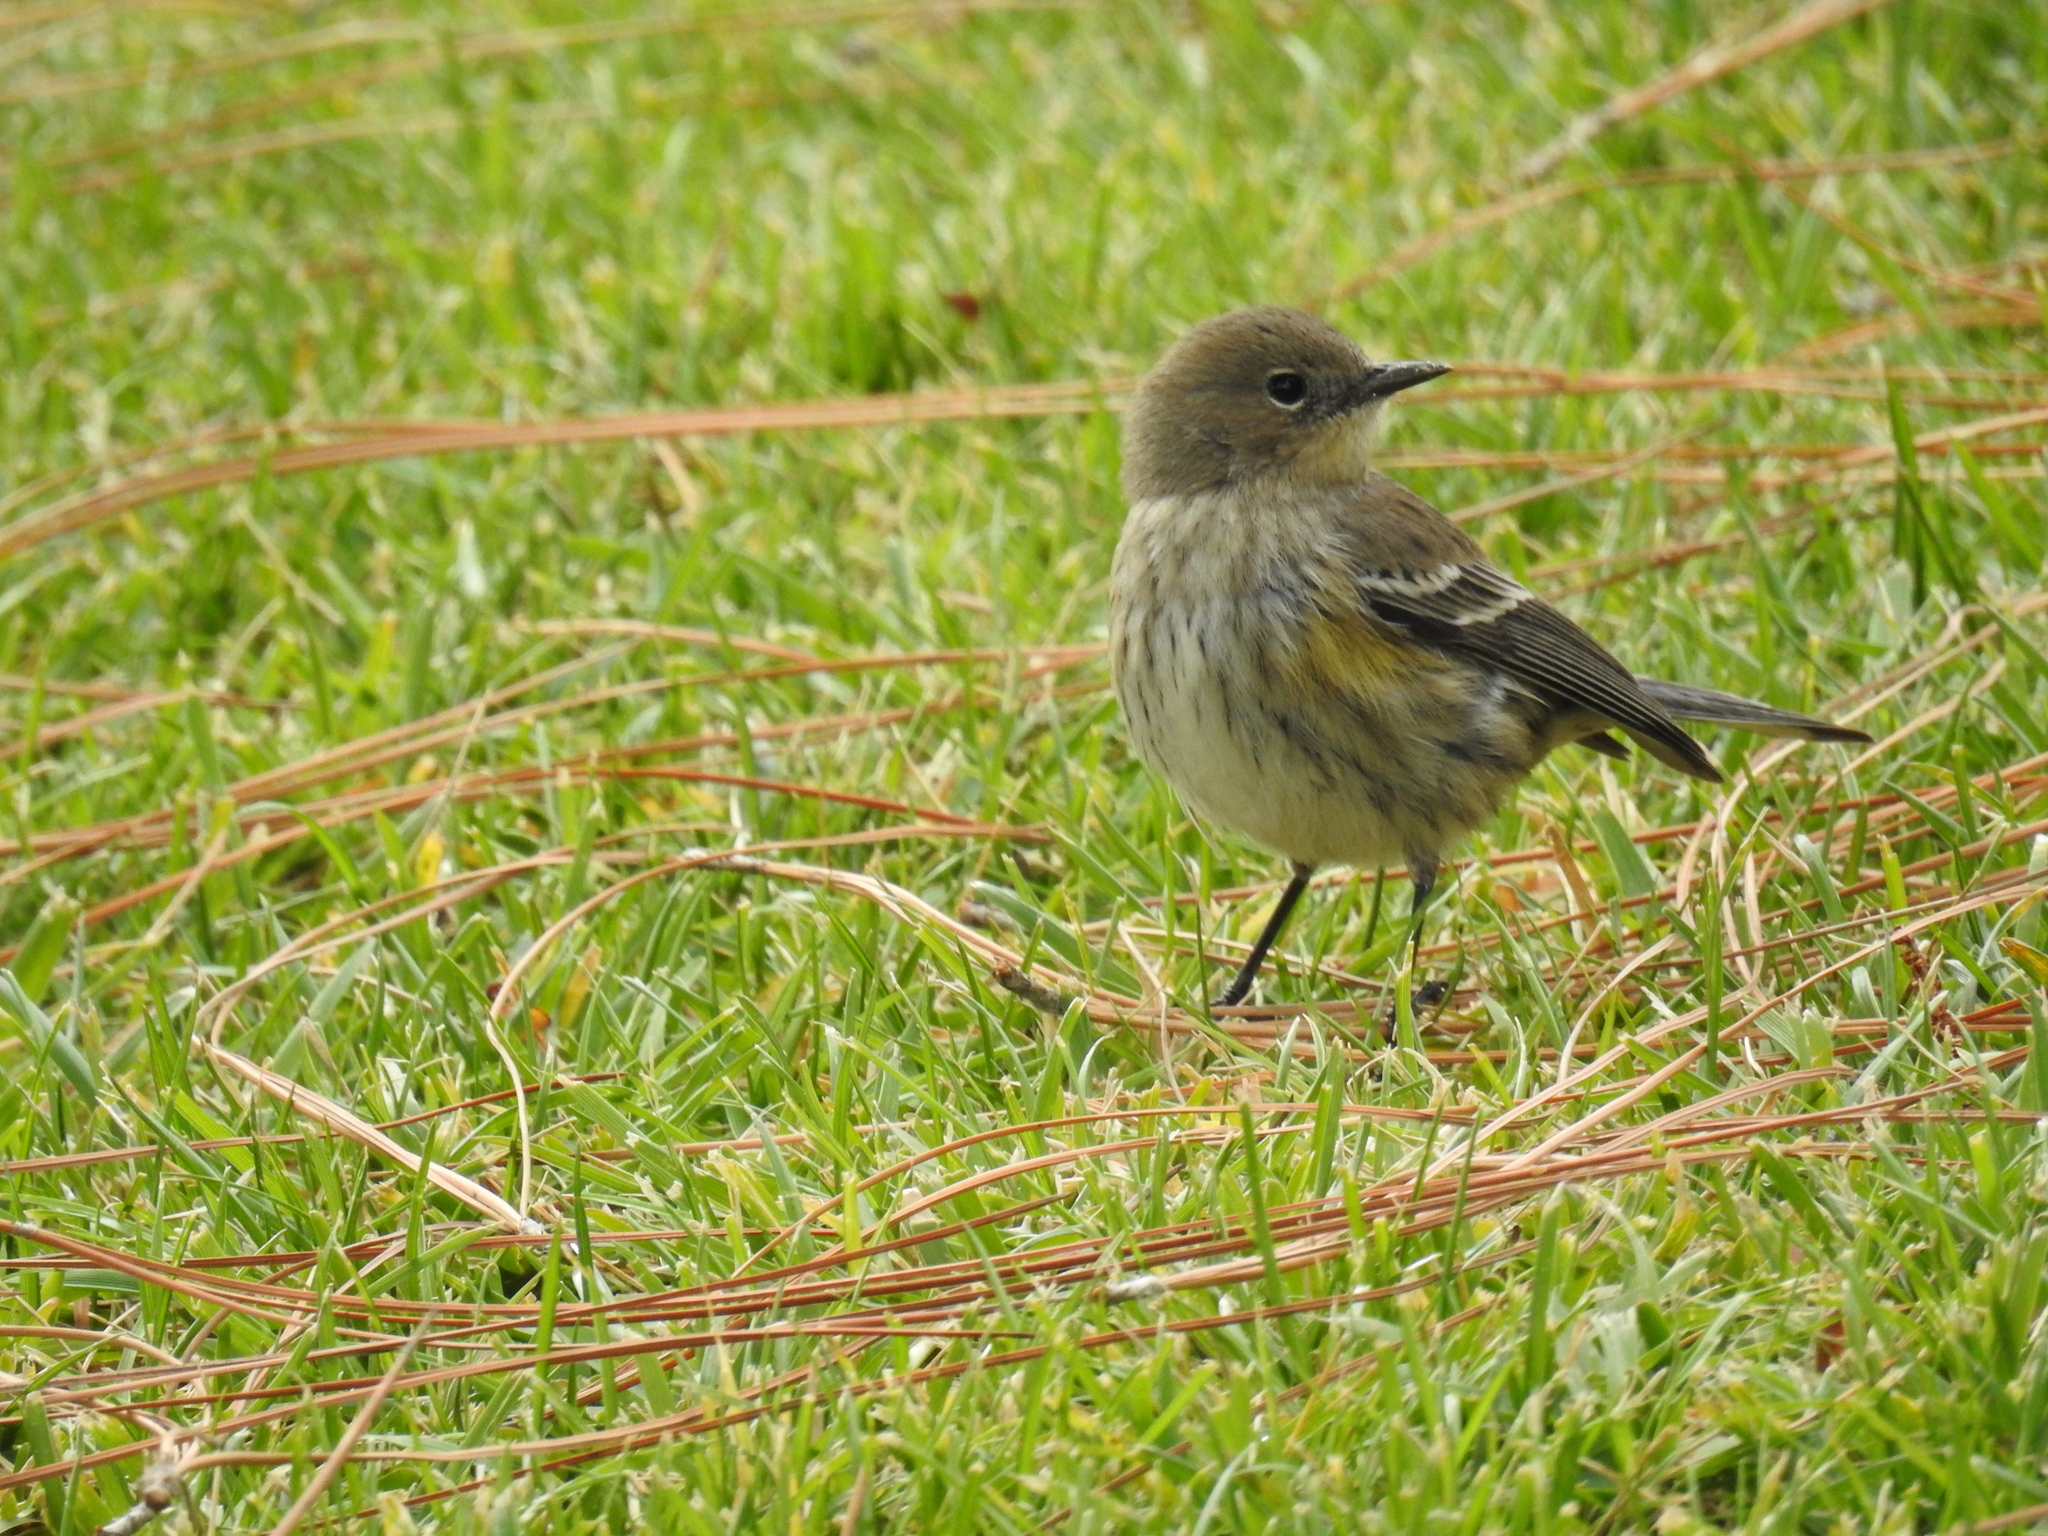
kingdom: Animalia
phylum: Chordata
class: Aves
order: Passeriformes
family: Parulidae
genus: Setophaga
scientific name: Setophaga coronata
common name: Myrtle warbler
